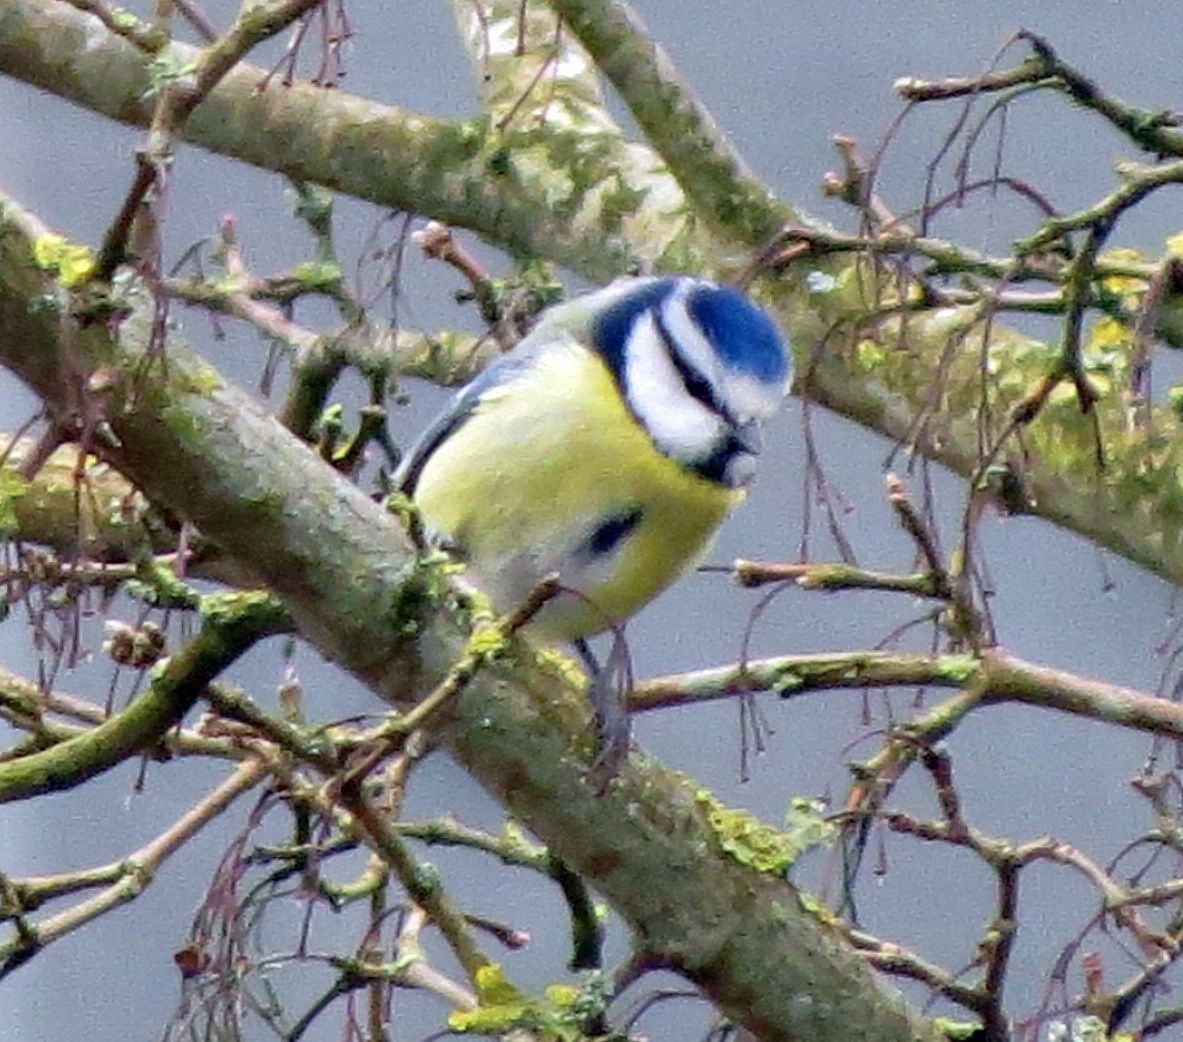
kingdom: Animalia
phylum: Chordata
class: Aves
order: Passeriformes
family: Paridae
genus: Cyanistes
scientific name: Cyanistes caeruleus
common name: Eurasian blue tit
